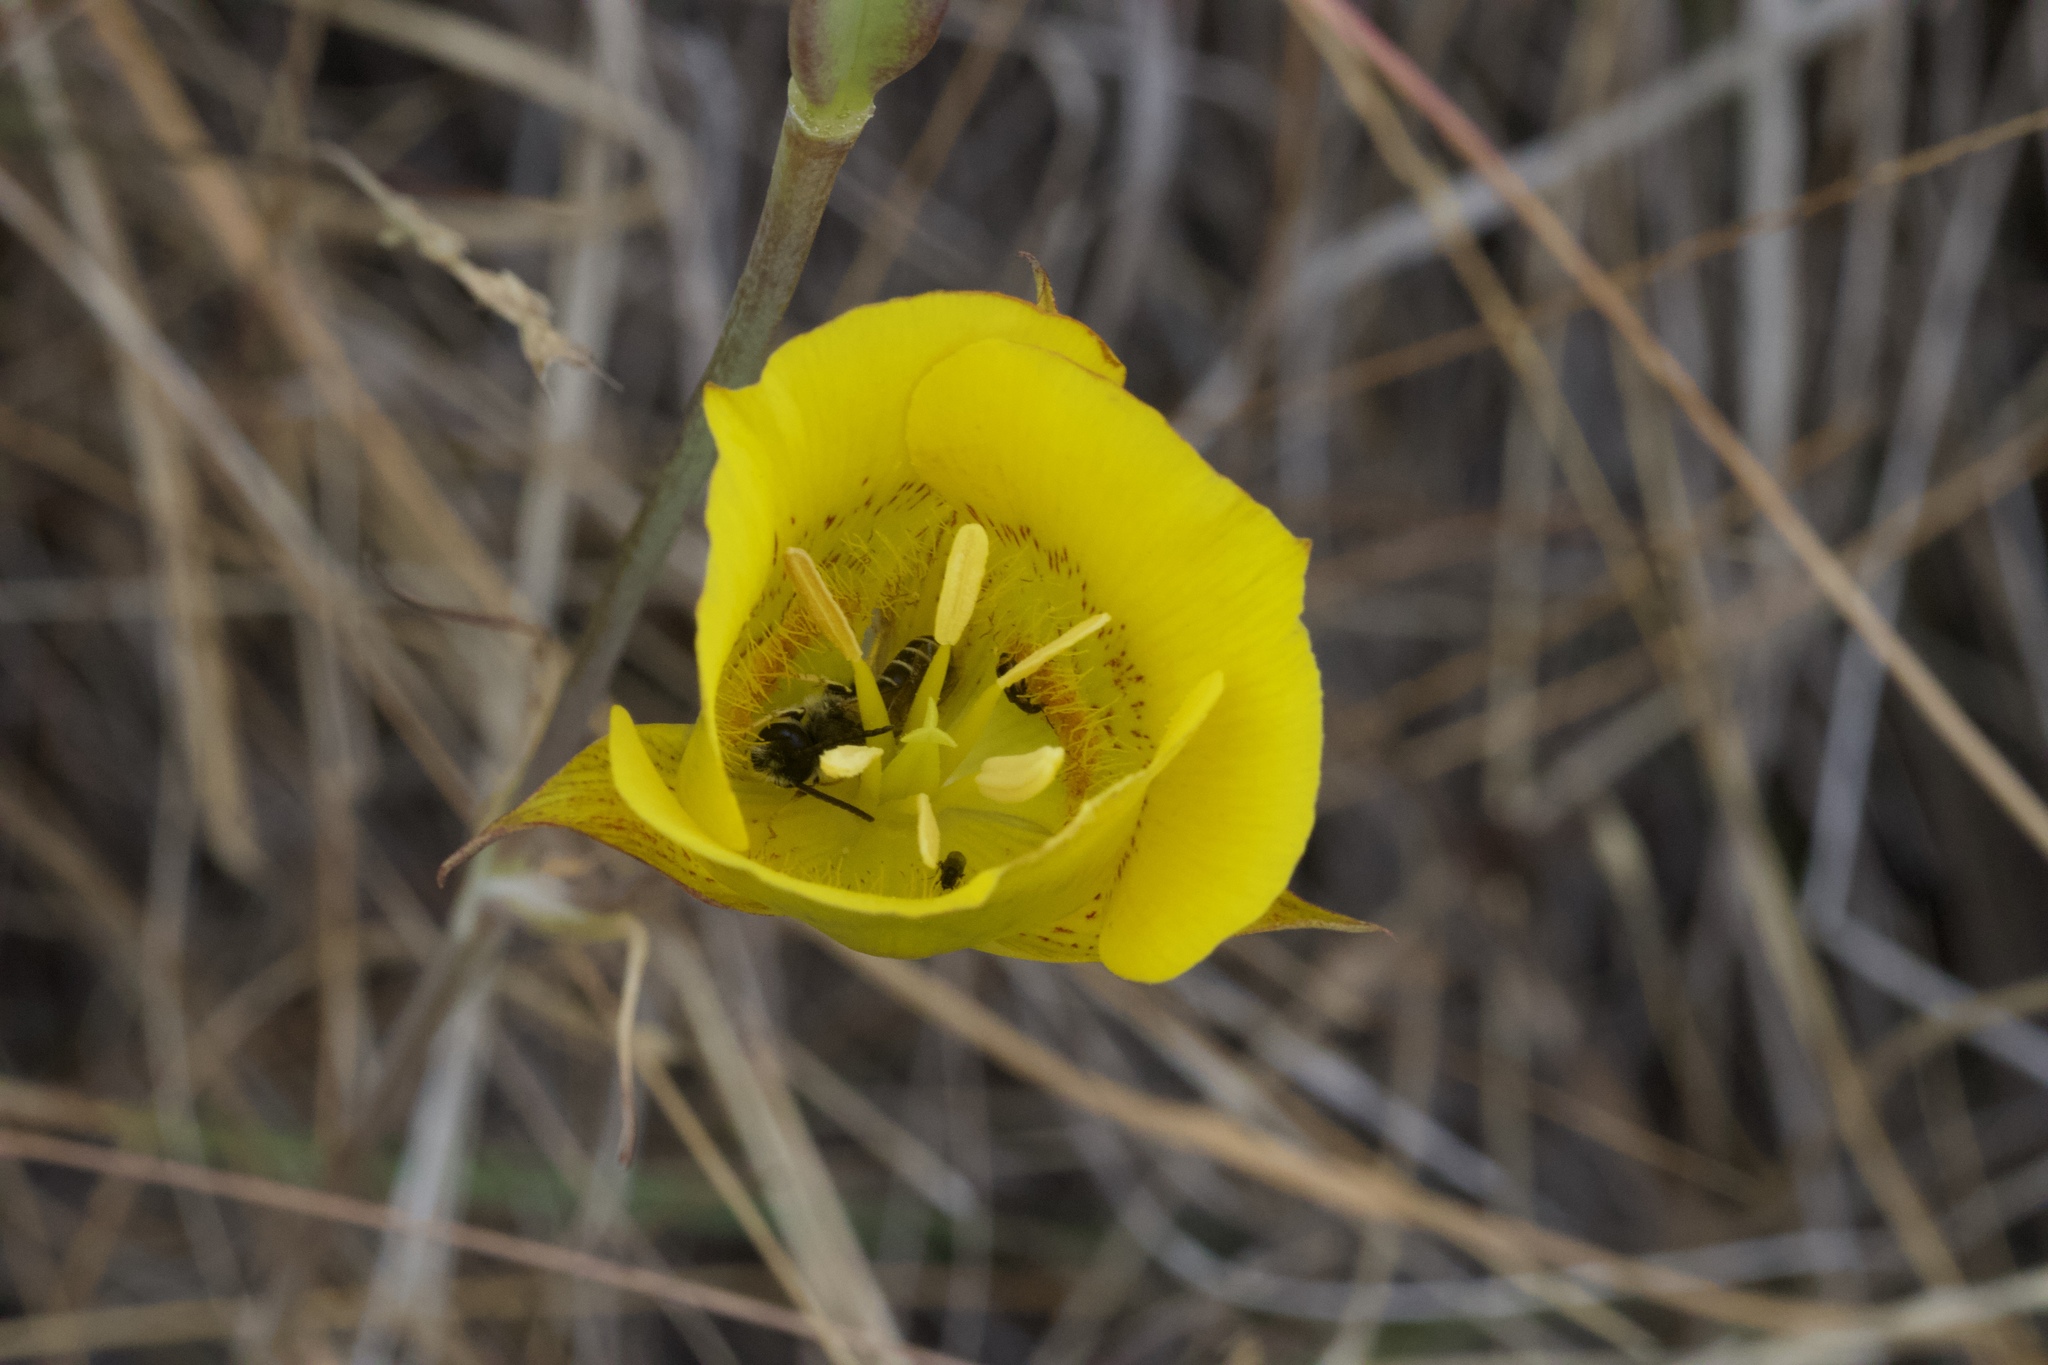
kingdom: Plantae
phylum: Tracheophyta
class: Liliopsida
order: Liliales
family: Liliaceae
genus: Calochortus
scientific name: Calochortus luteus
